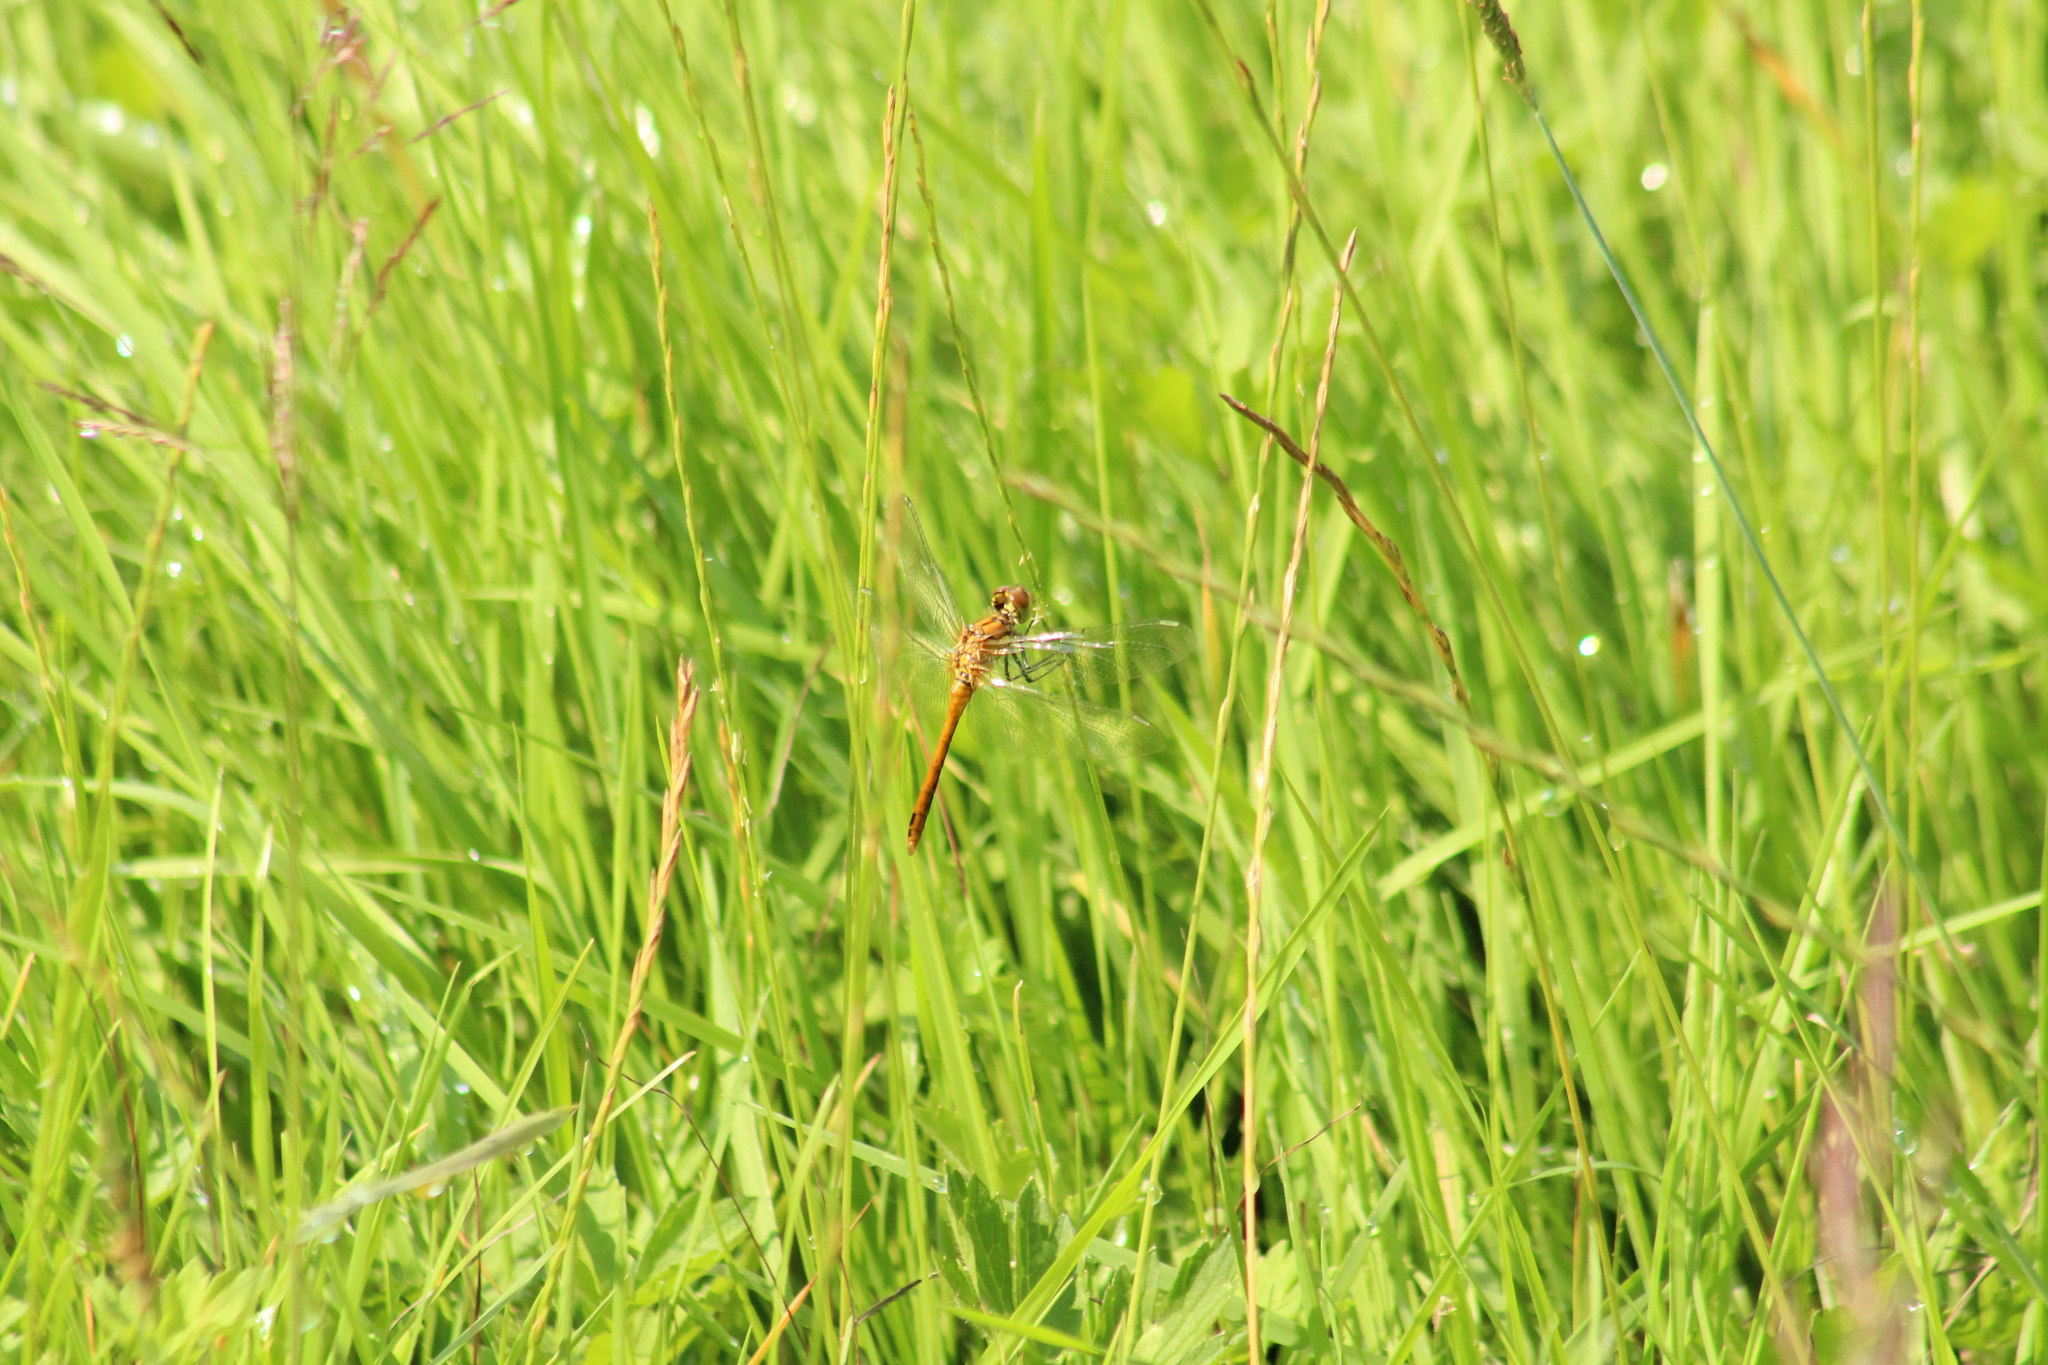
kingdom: Animalia
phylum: Arthropoda
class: Insecta
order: Odonata
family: Libellulidae
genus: Sympetrum
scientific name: Sympetrum sanguineum
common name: Ruddy darter
